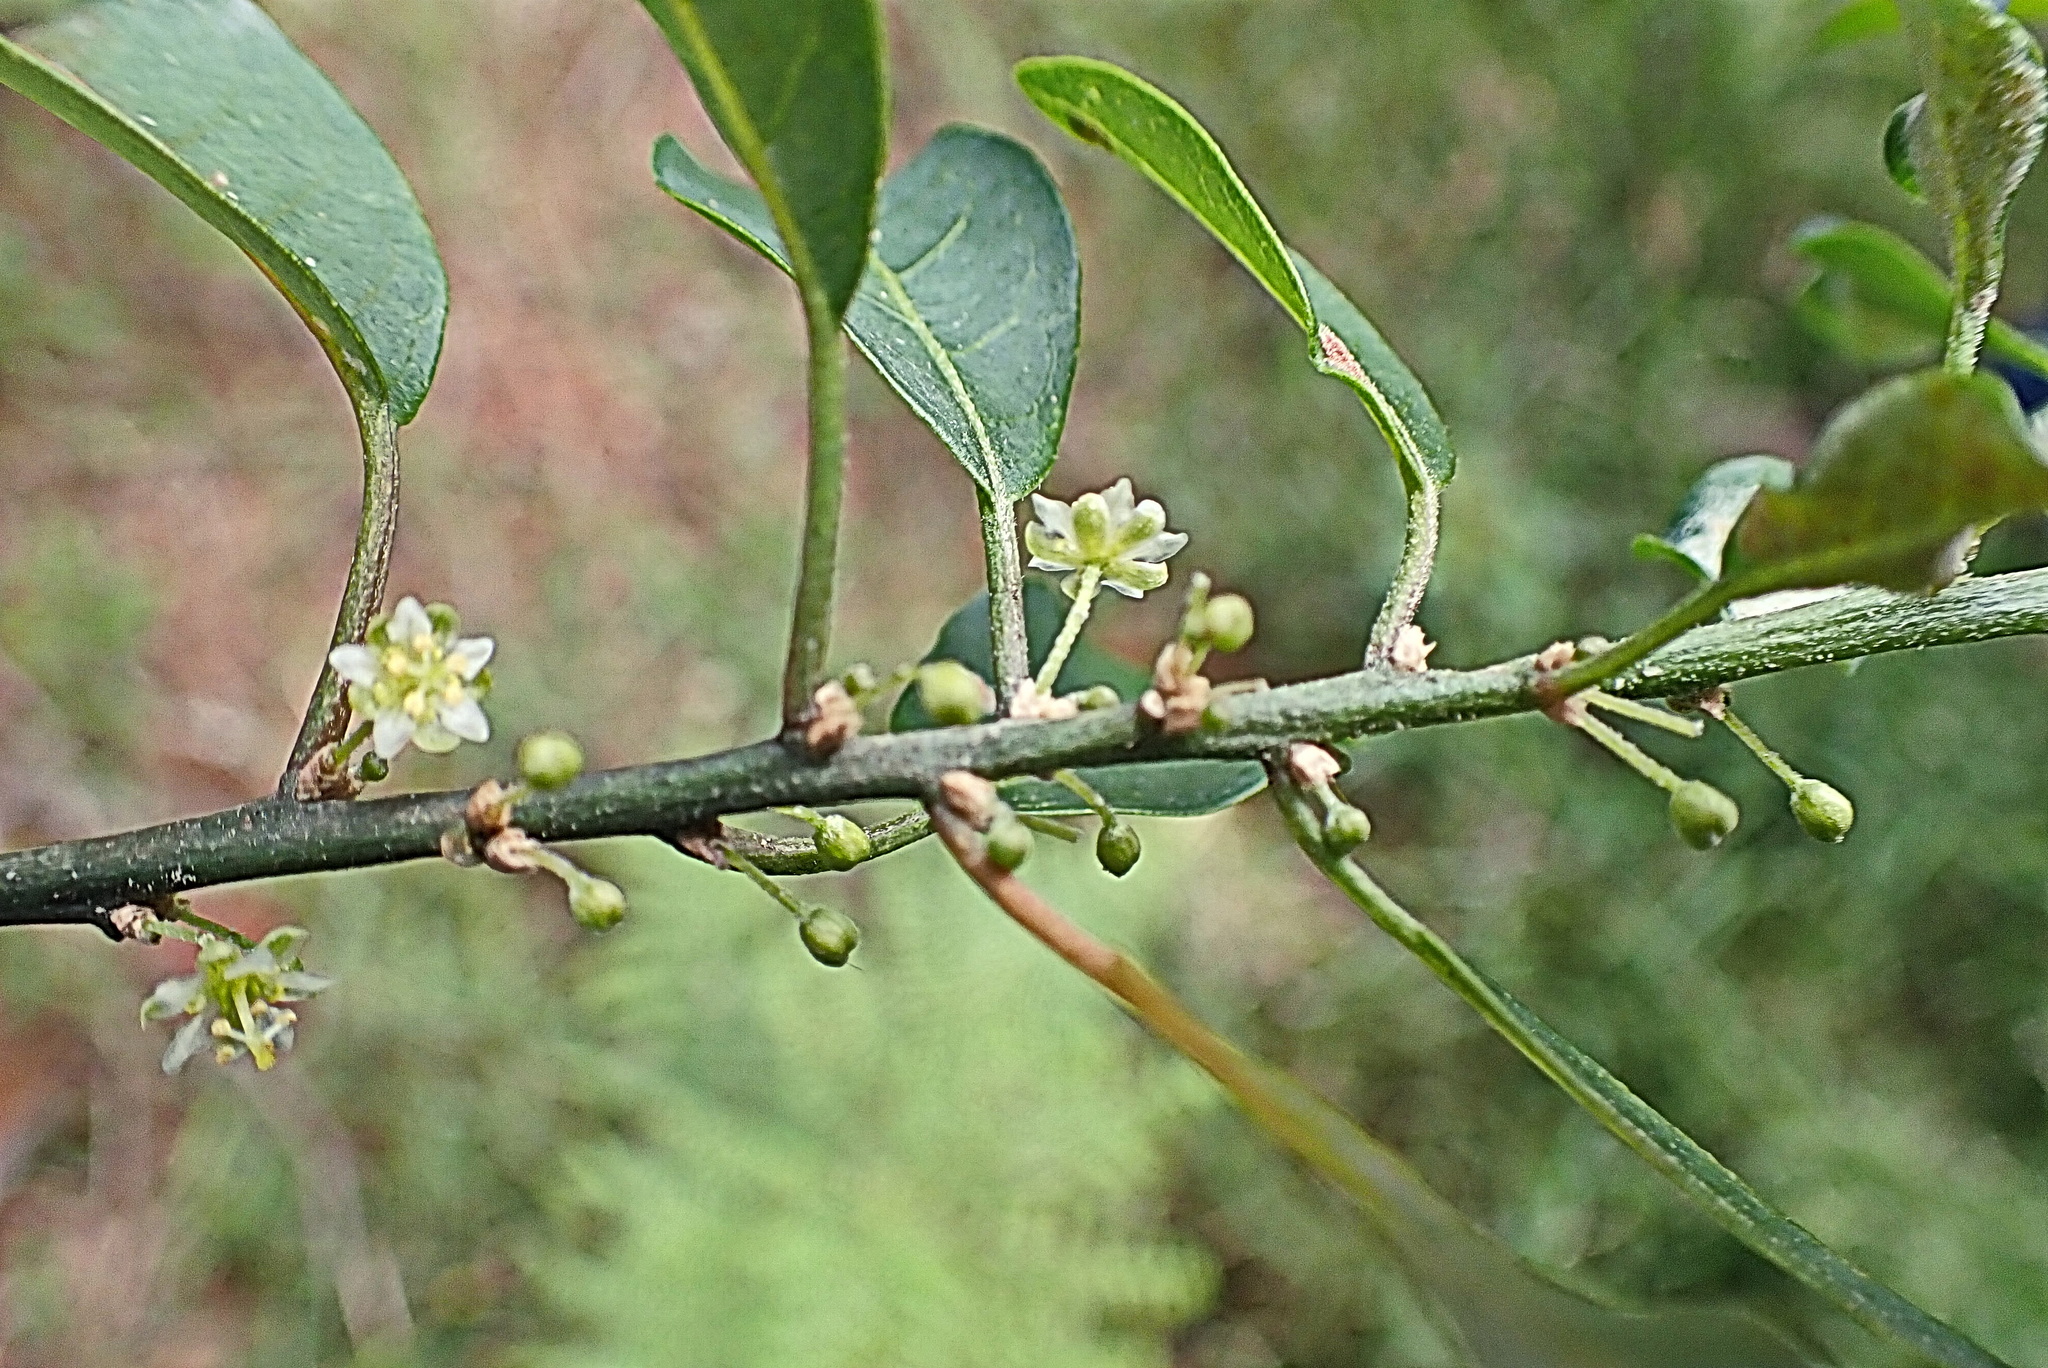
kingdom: Plantae
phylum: Tracheophyta
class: Magnoliopsida
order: Malpighiales
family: Peraceae
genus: Clutia
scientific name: Clutia pulchella
